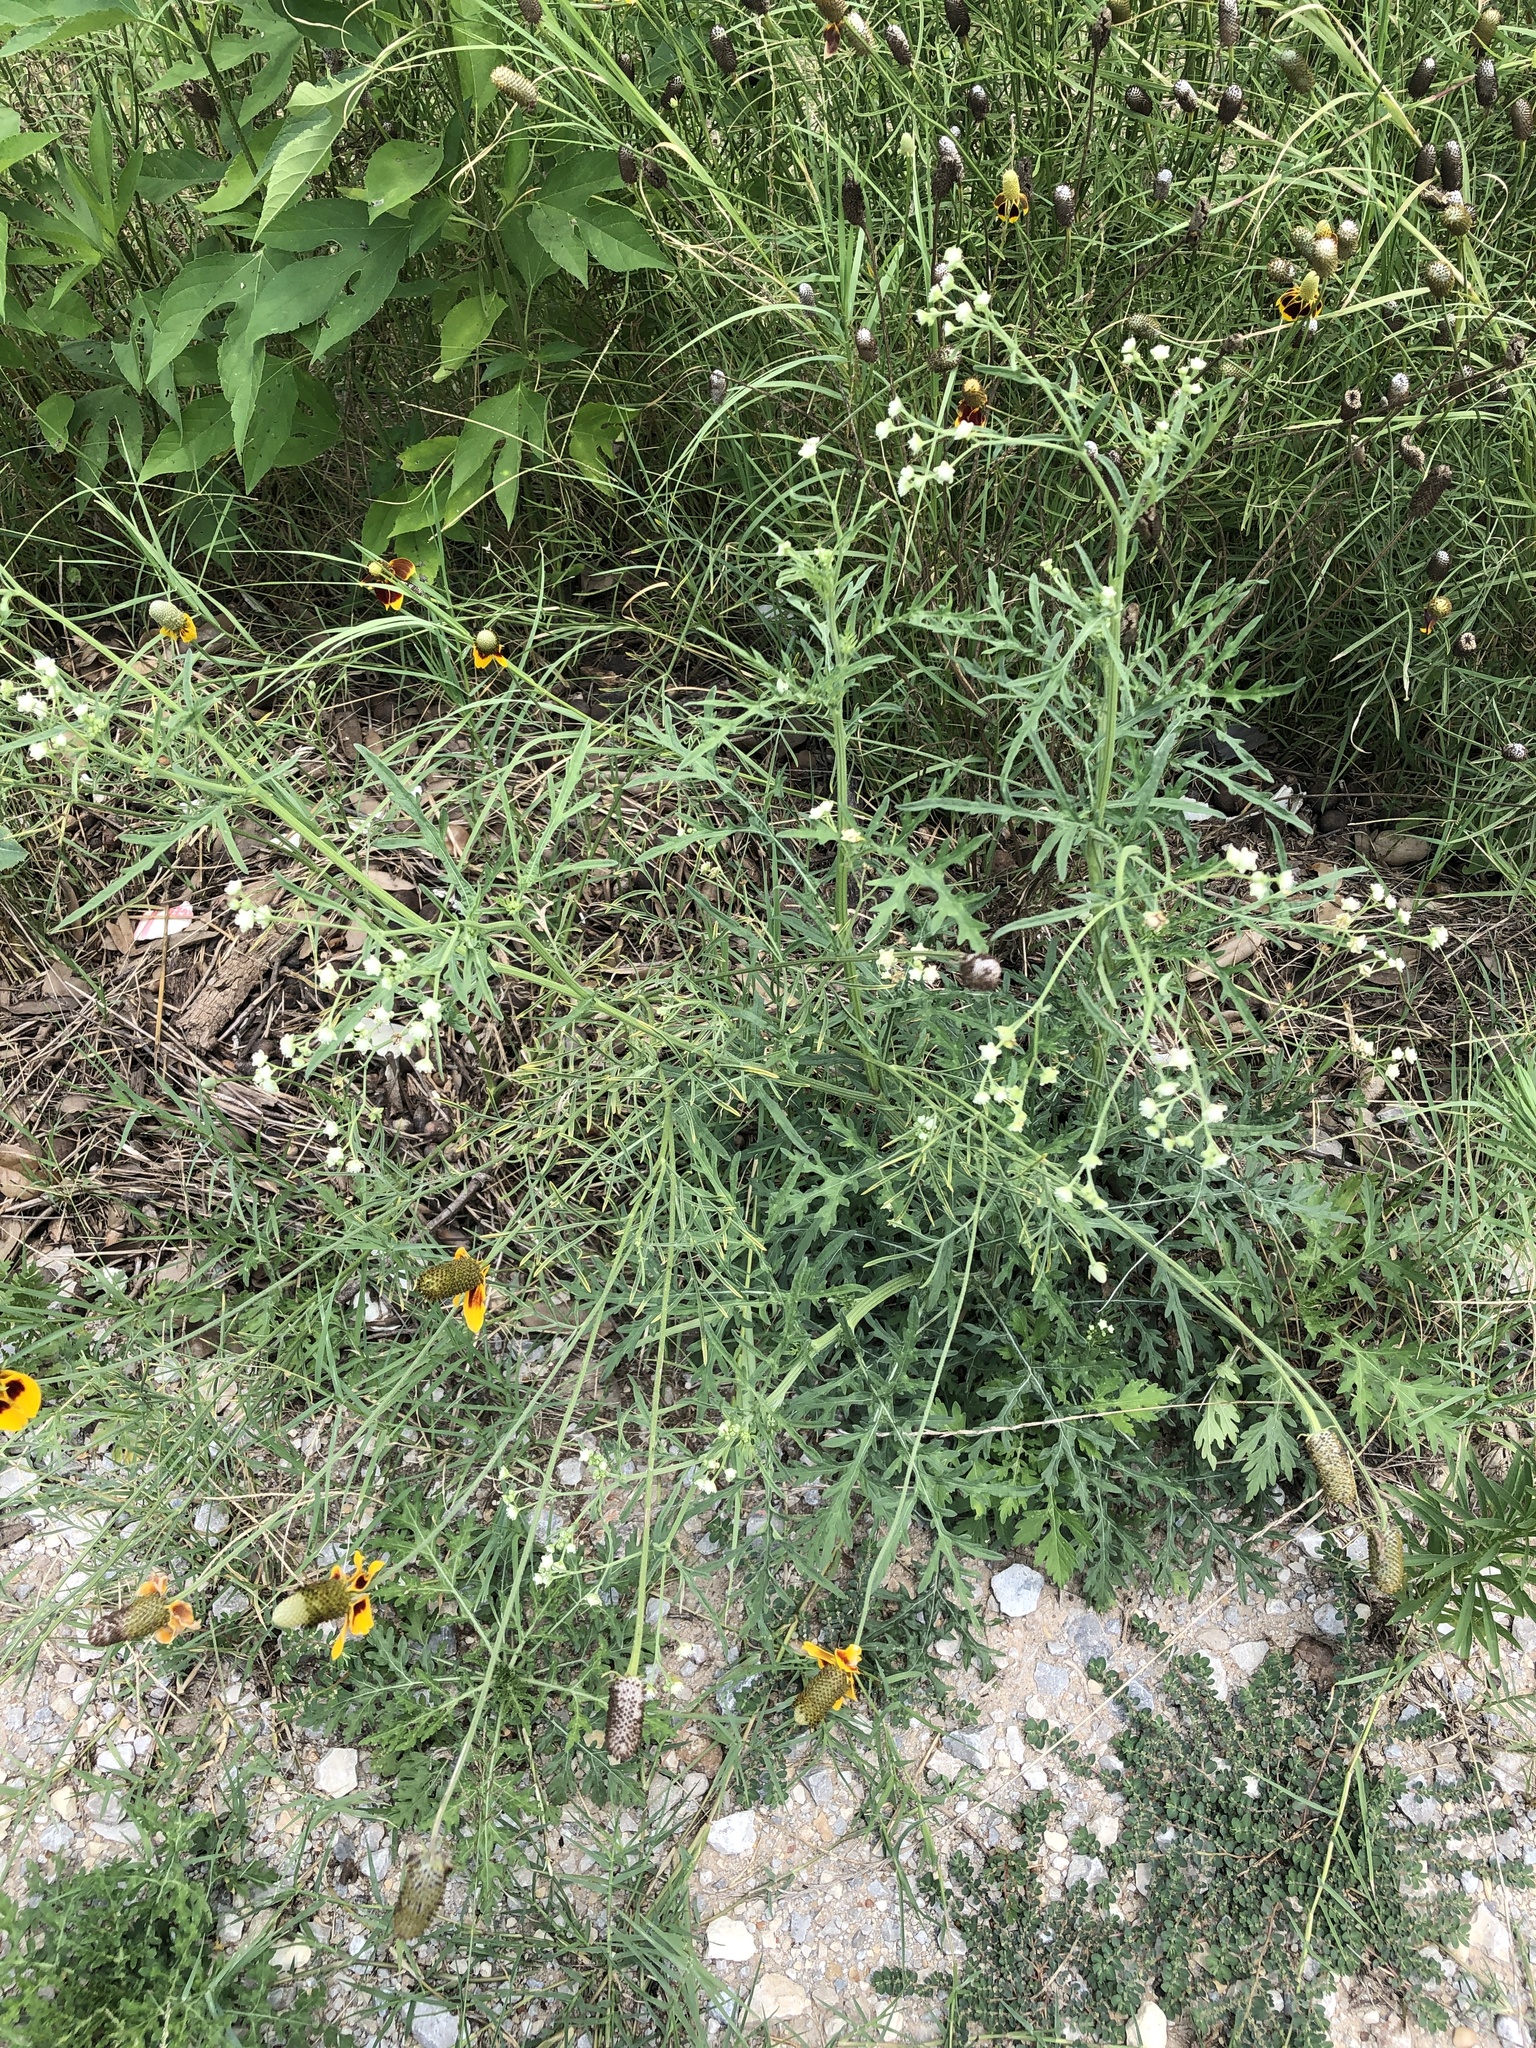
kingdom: Plantae
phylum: Tracheophyta
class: Magnoliopsida
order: Asterales
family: Asteraceae
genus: Parthenium
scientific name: Parthenium hysterophorus
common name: Santa maria feverfew
